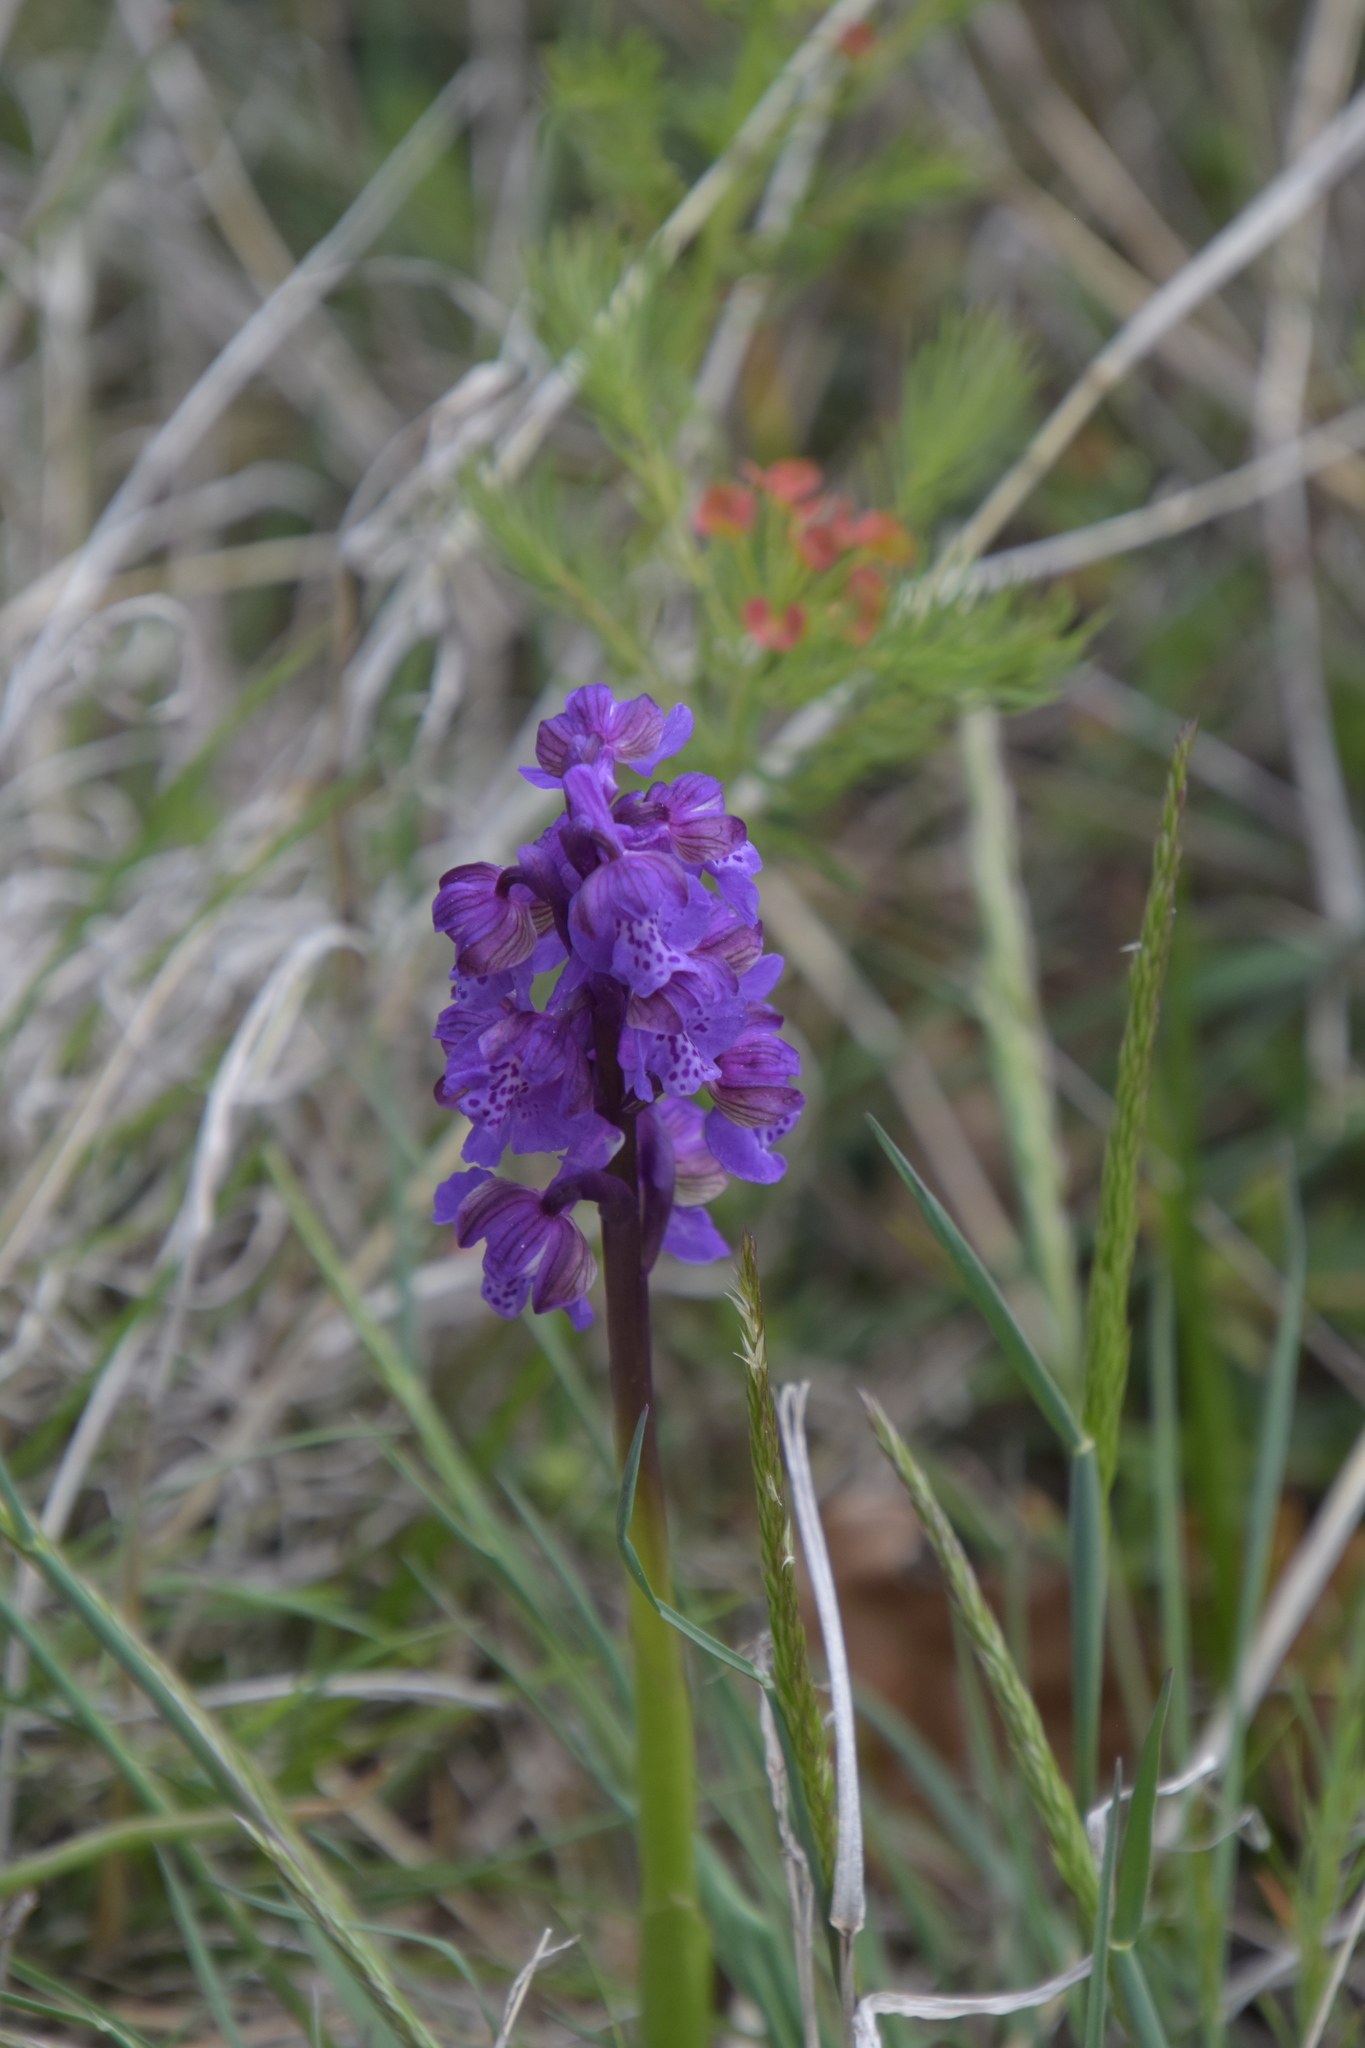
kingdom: Plantae
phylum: Tracheophyta
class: Liliopsida
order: Asparagales
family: Orchidaceae
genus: Anacamptis
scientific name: Anacamptis morio
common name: Green-winged orchid
